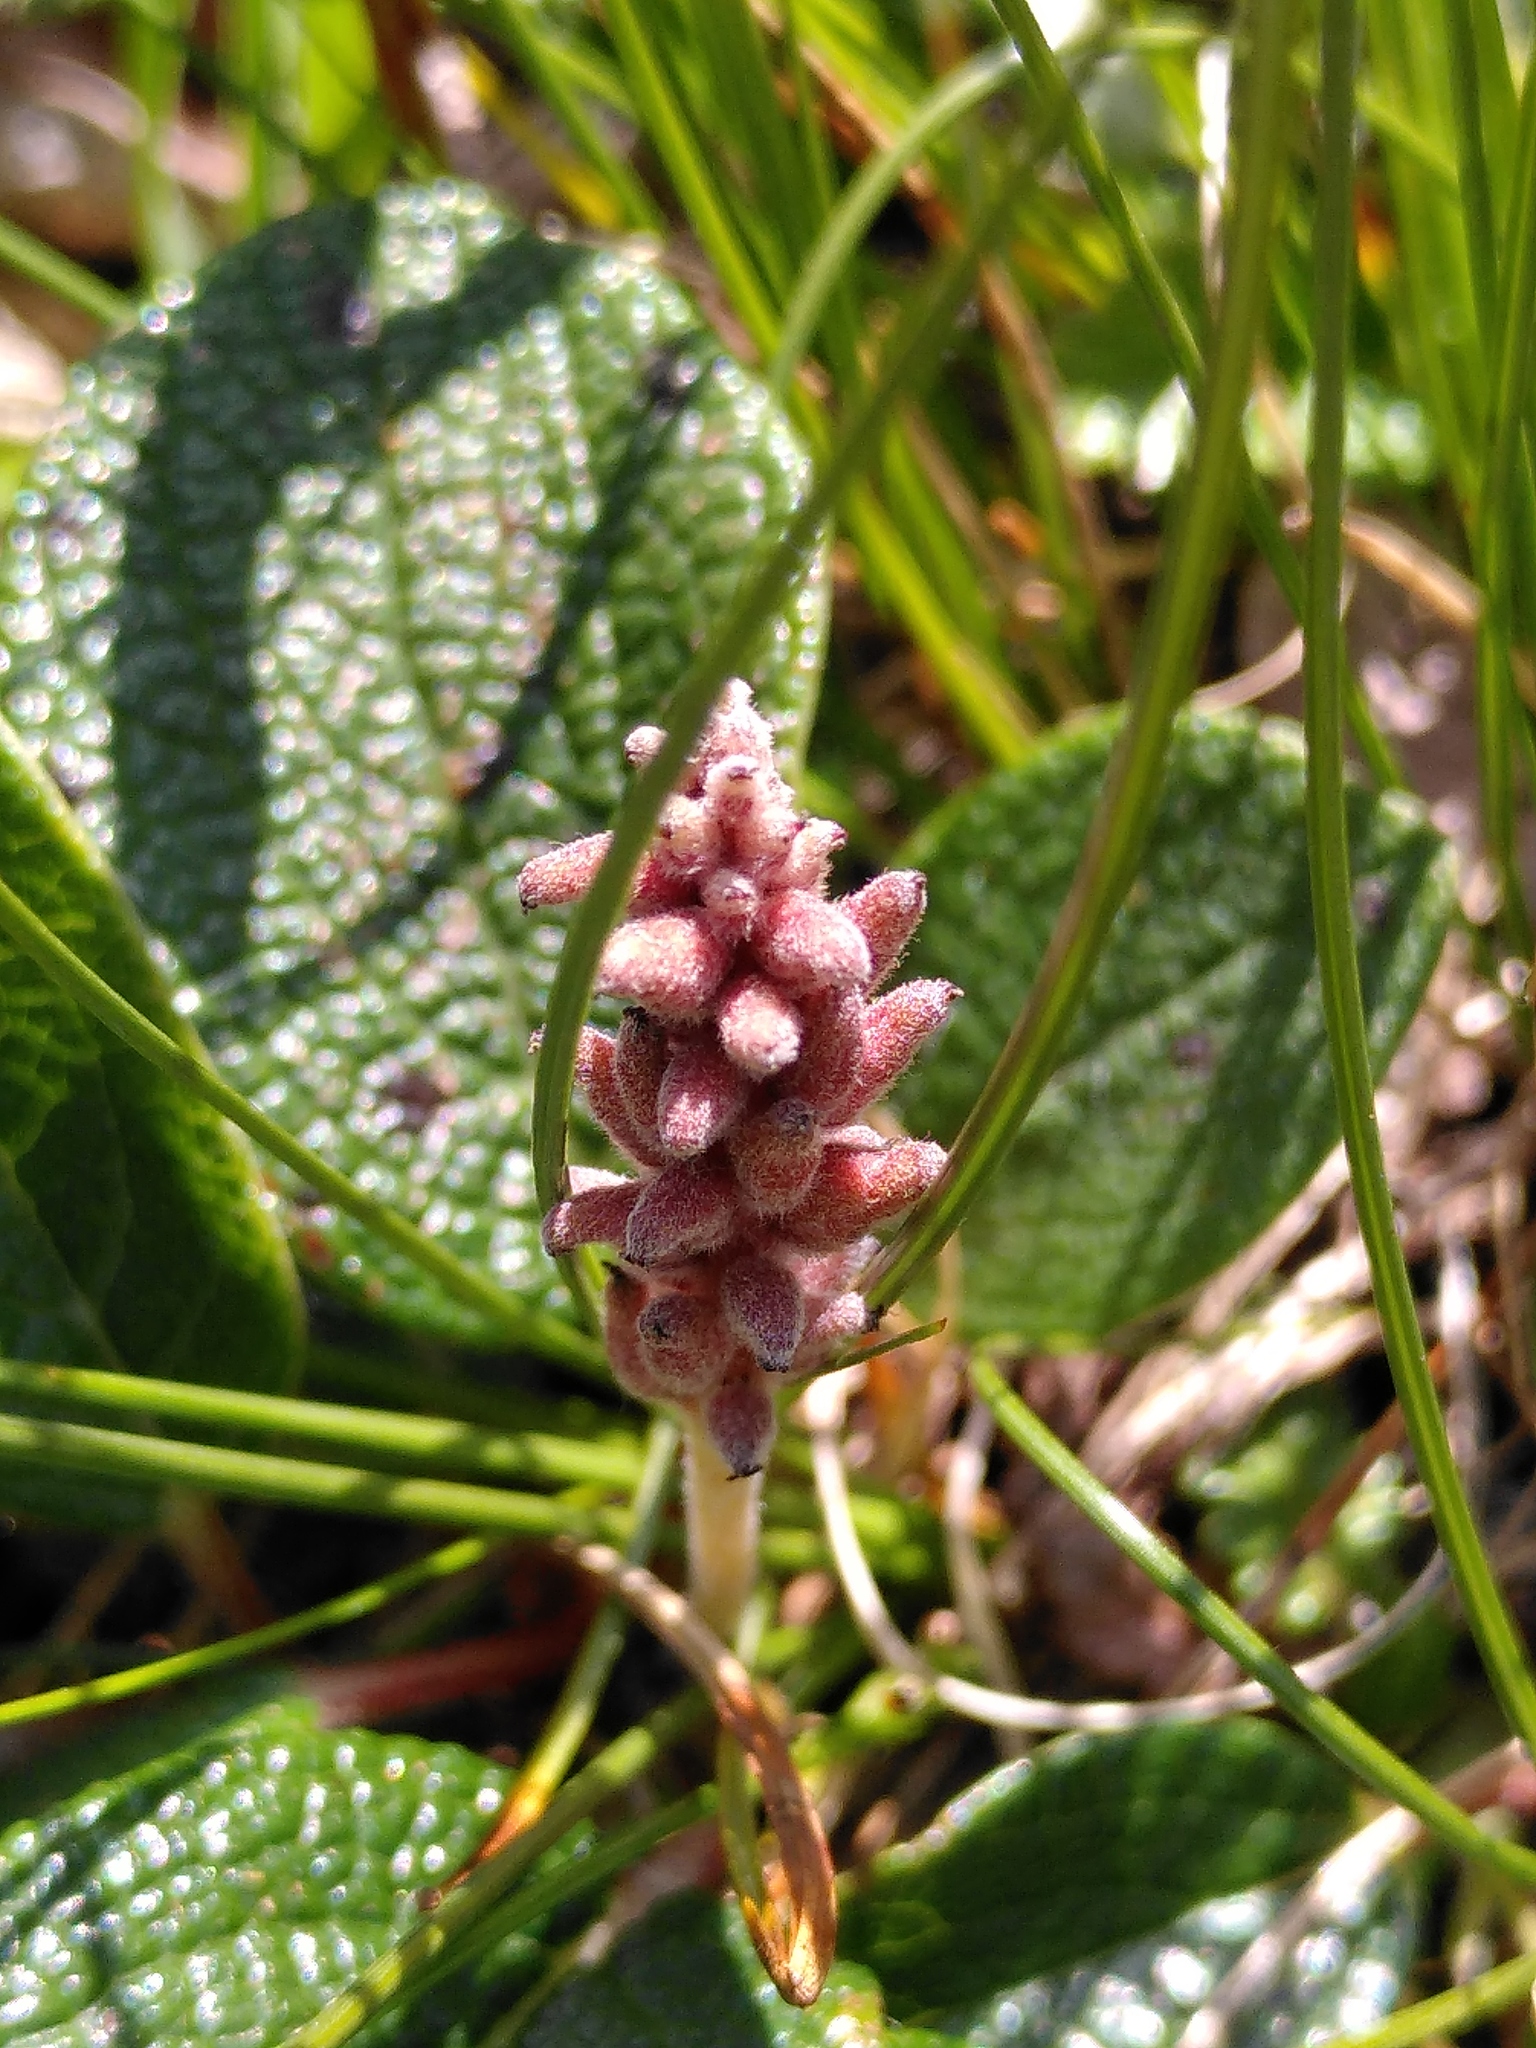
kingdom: Plantae
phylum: Tracheophyta
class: Magnoliopsida
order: Malpighiales
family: Salicaceae
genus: Salix
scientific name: Salix reticulata
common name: Net-leaved willow
